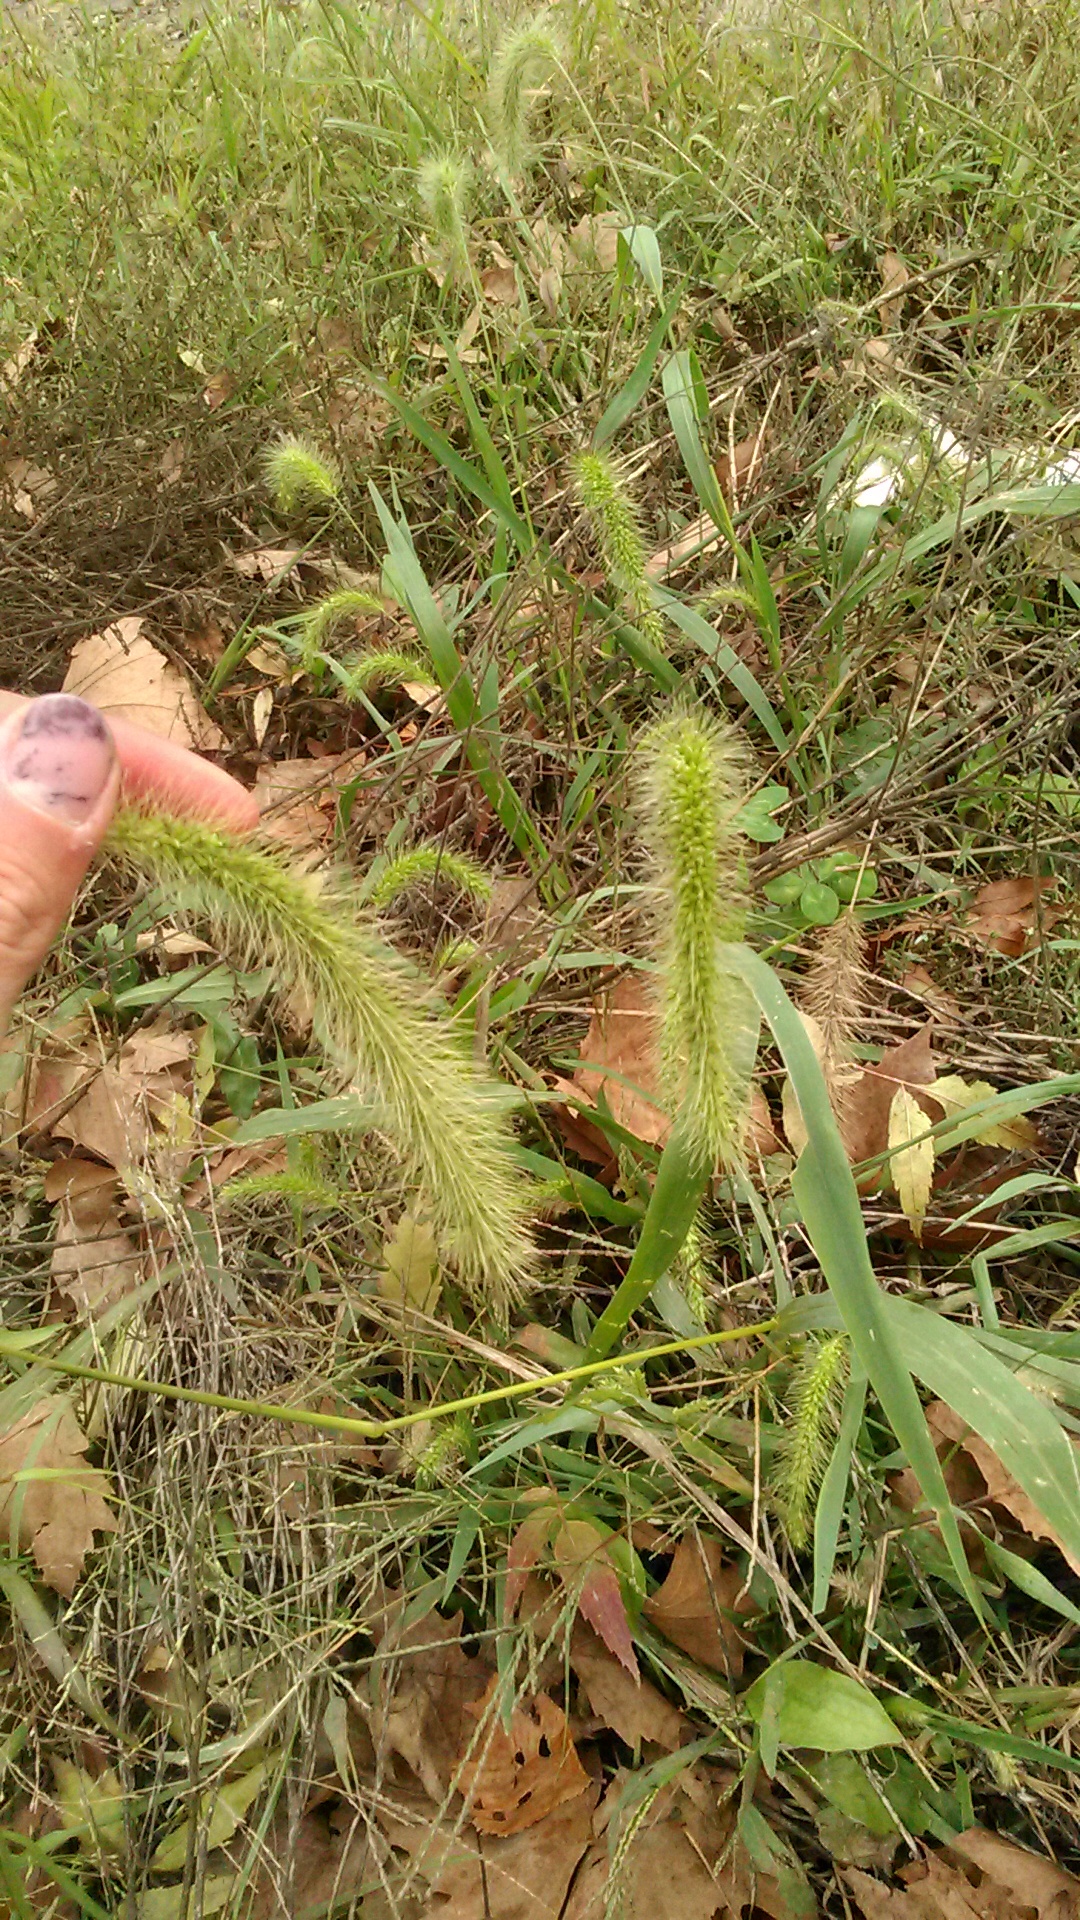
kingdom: Plantae
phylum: Tracheophyta
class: Liliopsida
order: Poales
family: Poaceae
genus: Setaria
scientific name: Setaria viridis
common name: Green bristlegrass
